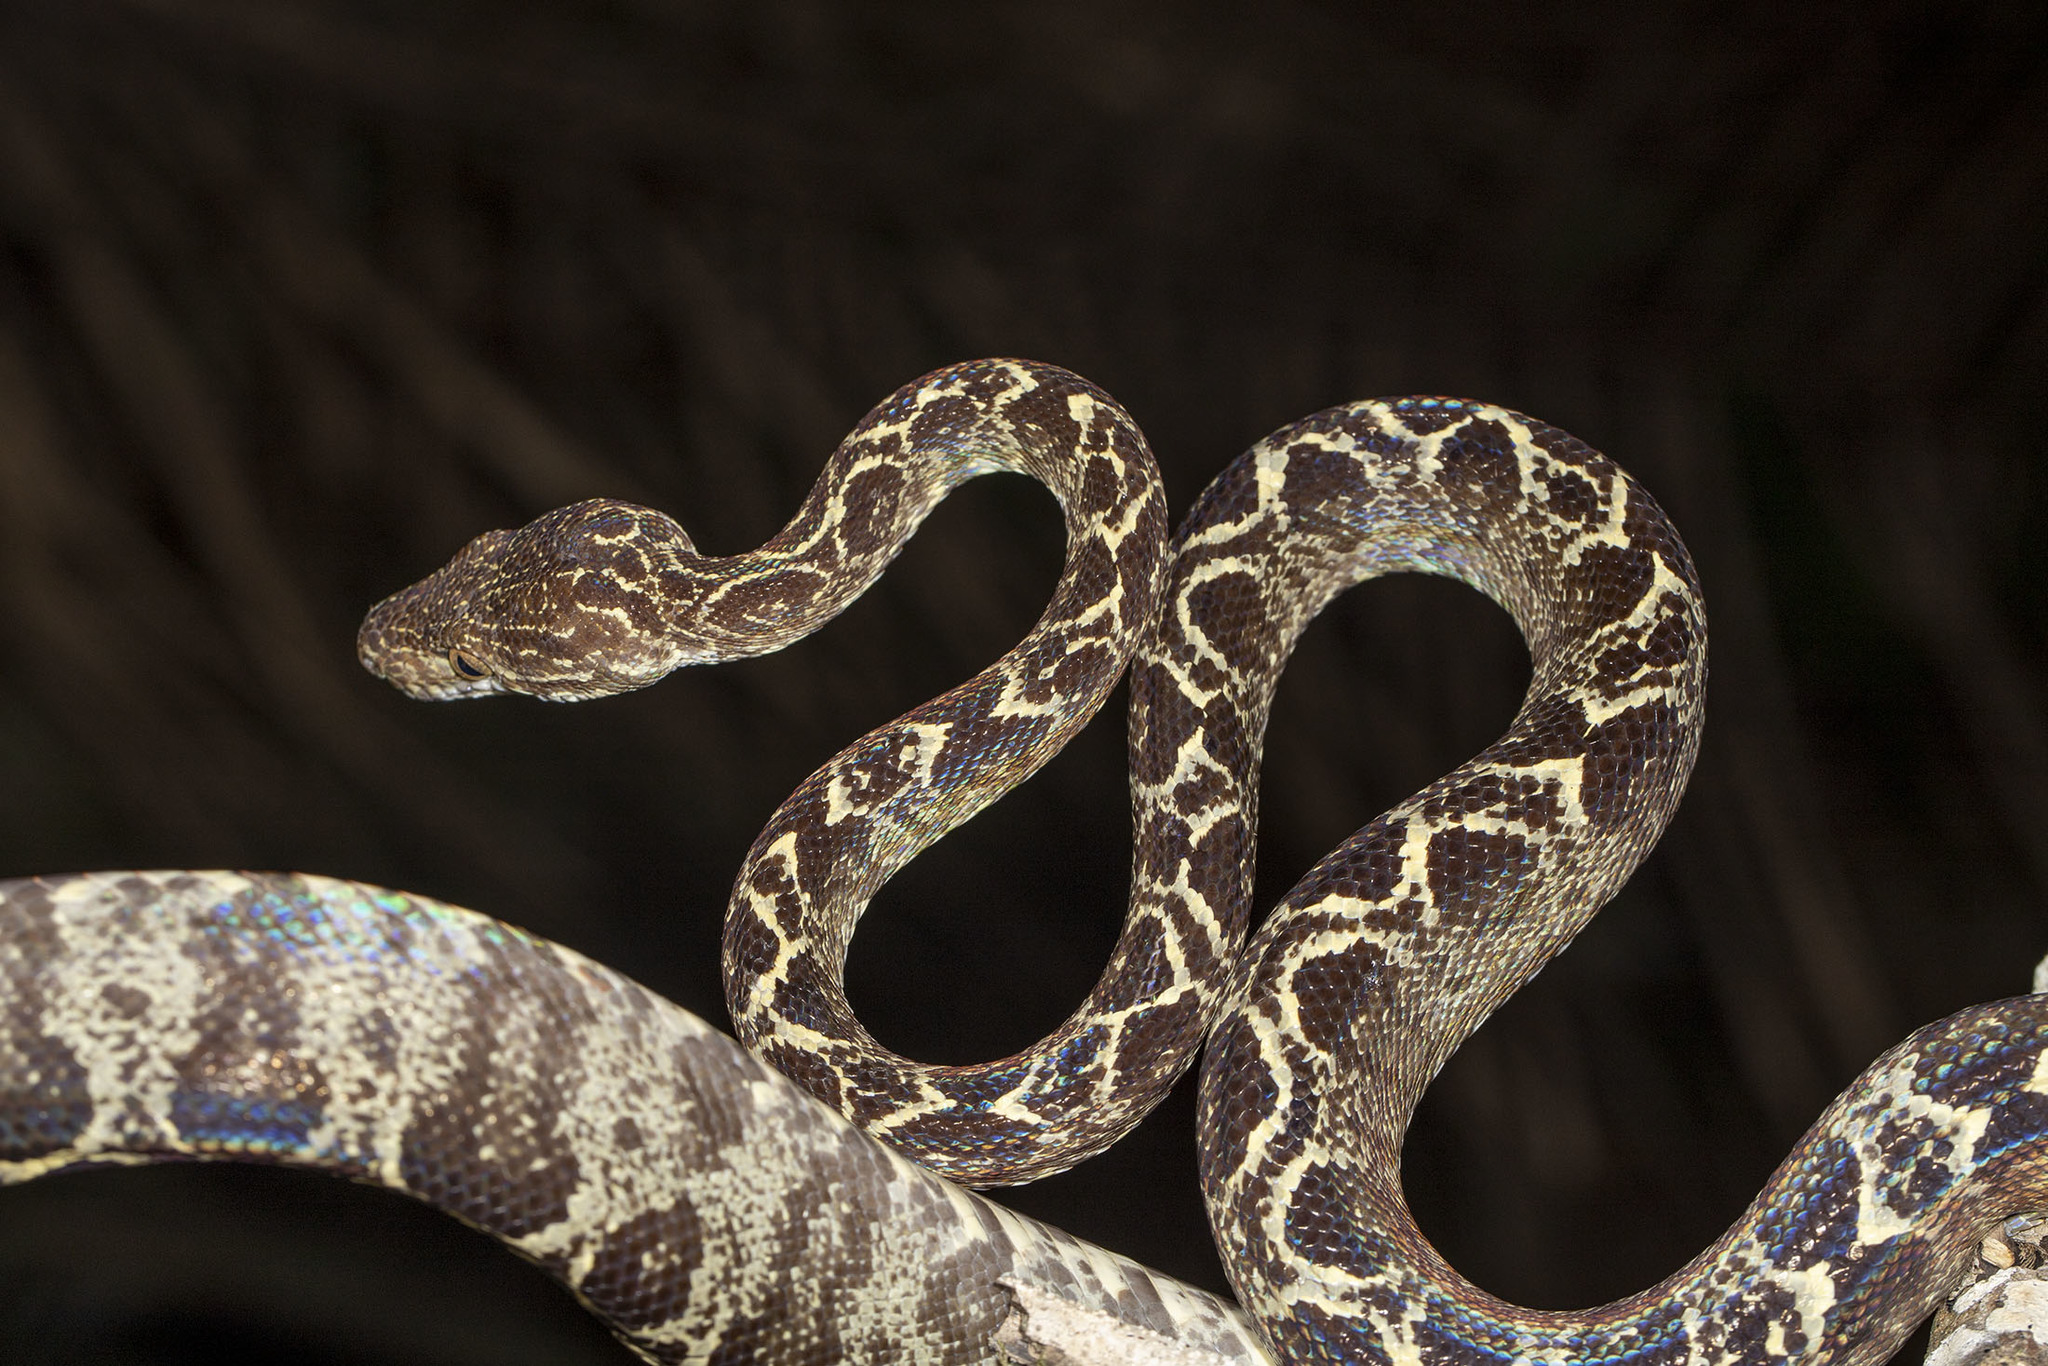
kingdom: Animalia
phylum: Chordata
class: Squamata
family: Boidae
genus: Corallus
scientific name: Corallus hortulana
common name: Garden tree boa
